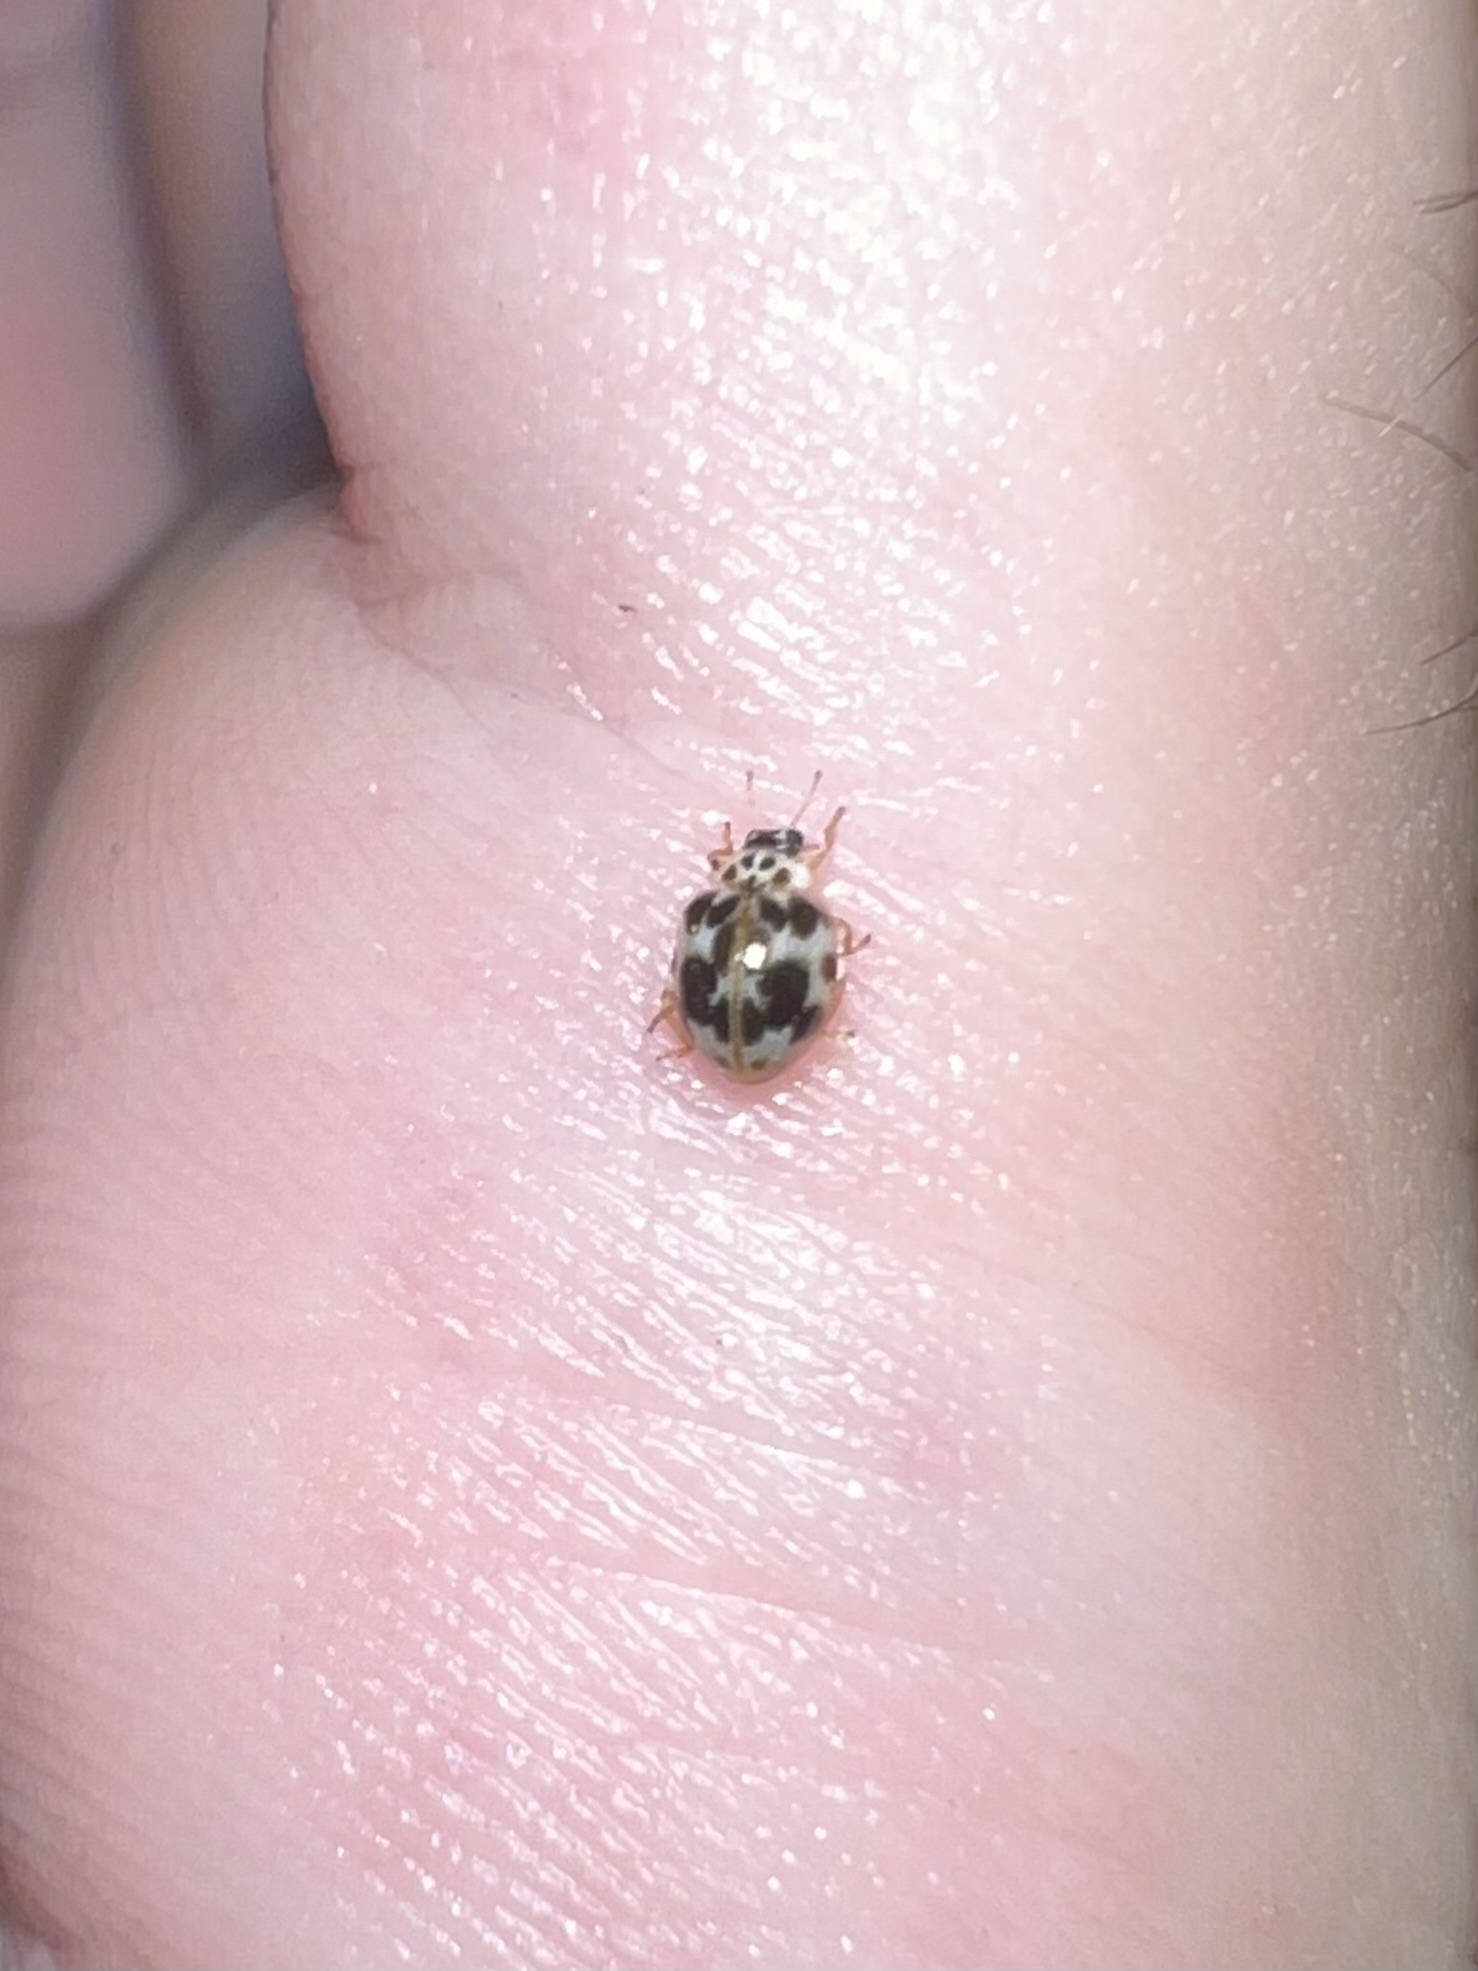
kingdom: Animalia
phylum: Arthropoda
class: Insecta
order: Coleoptera
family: Coccinellidae
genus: Psyllobora
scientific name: Psyllobora borealis
